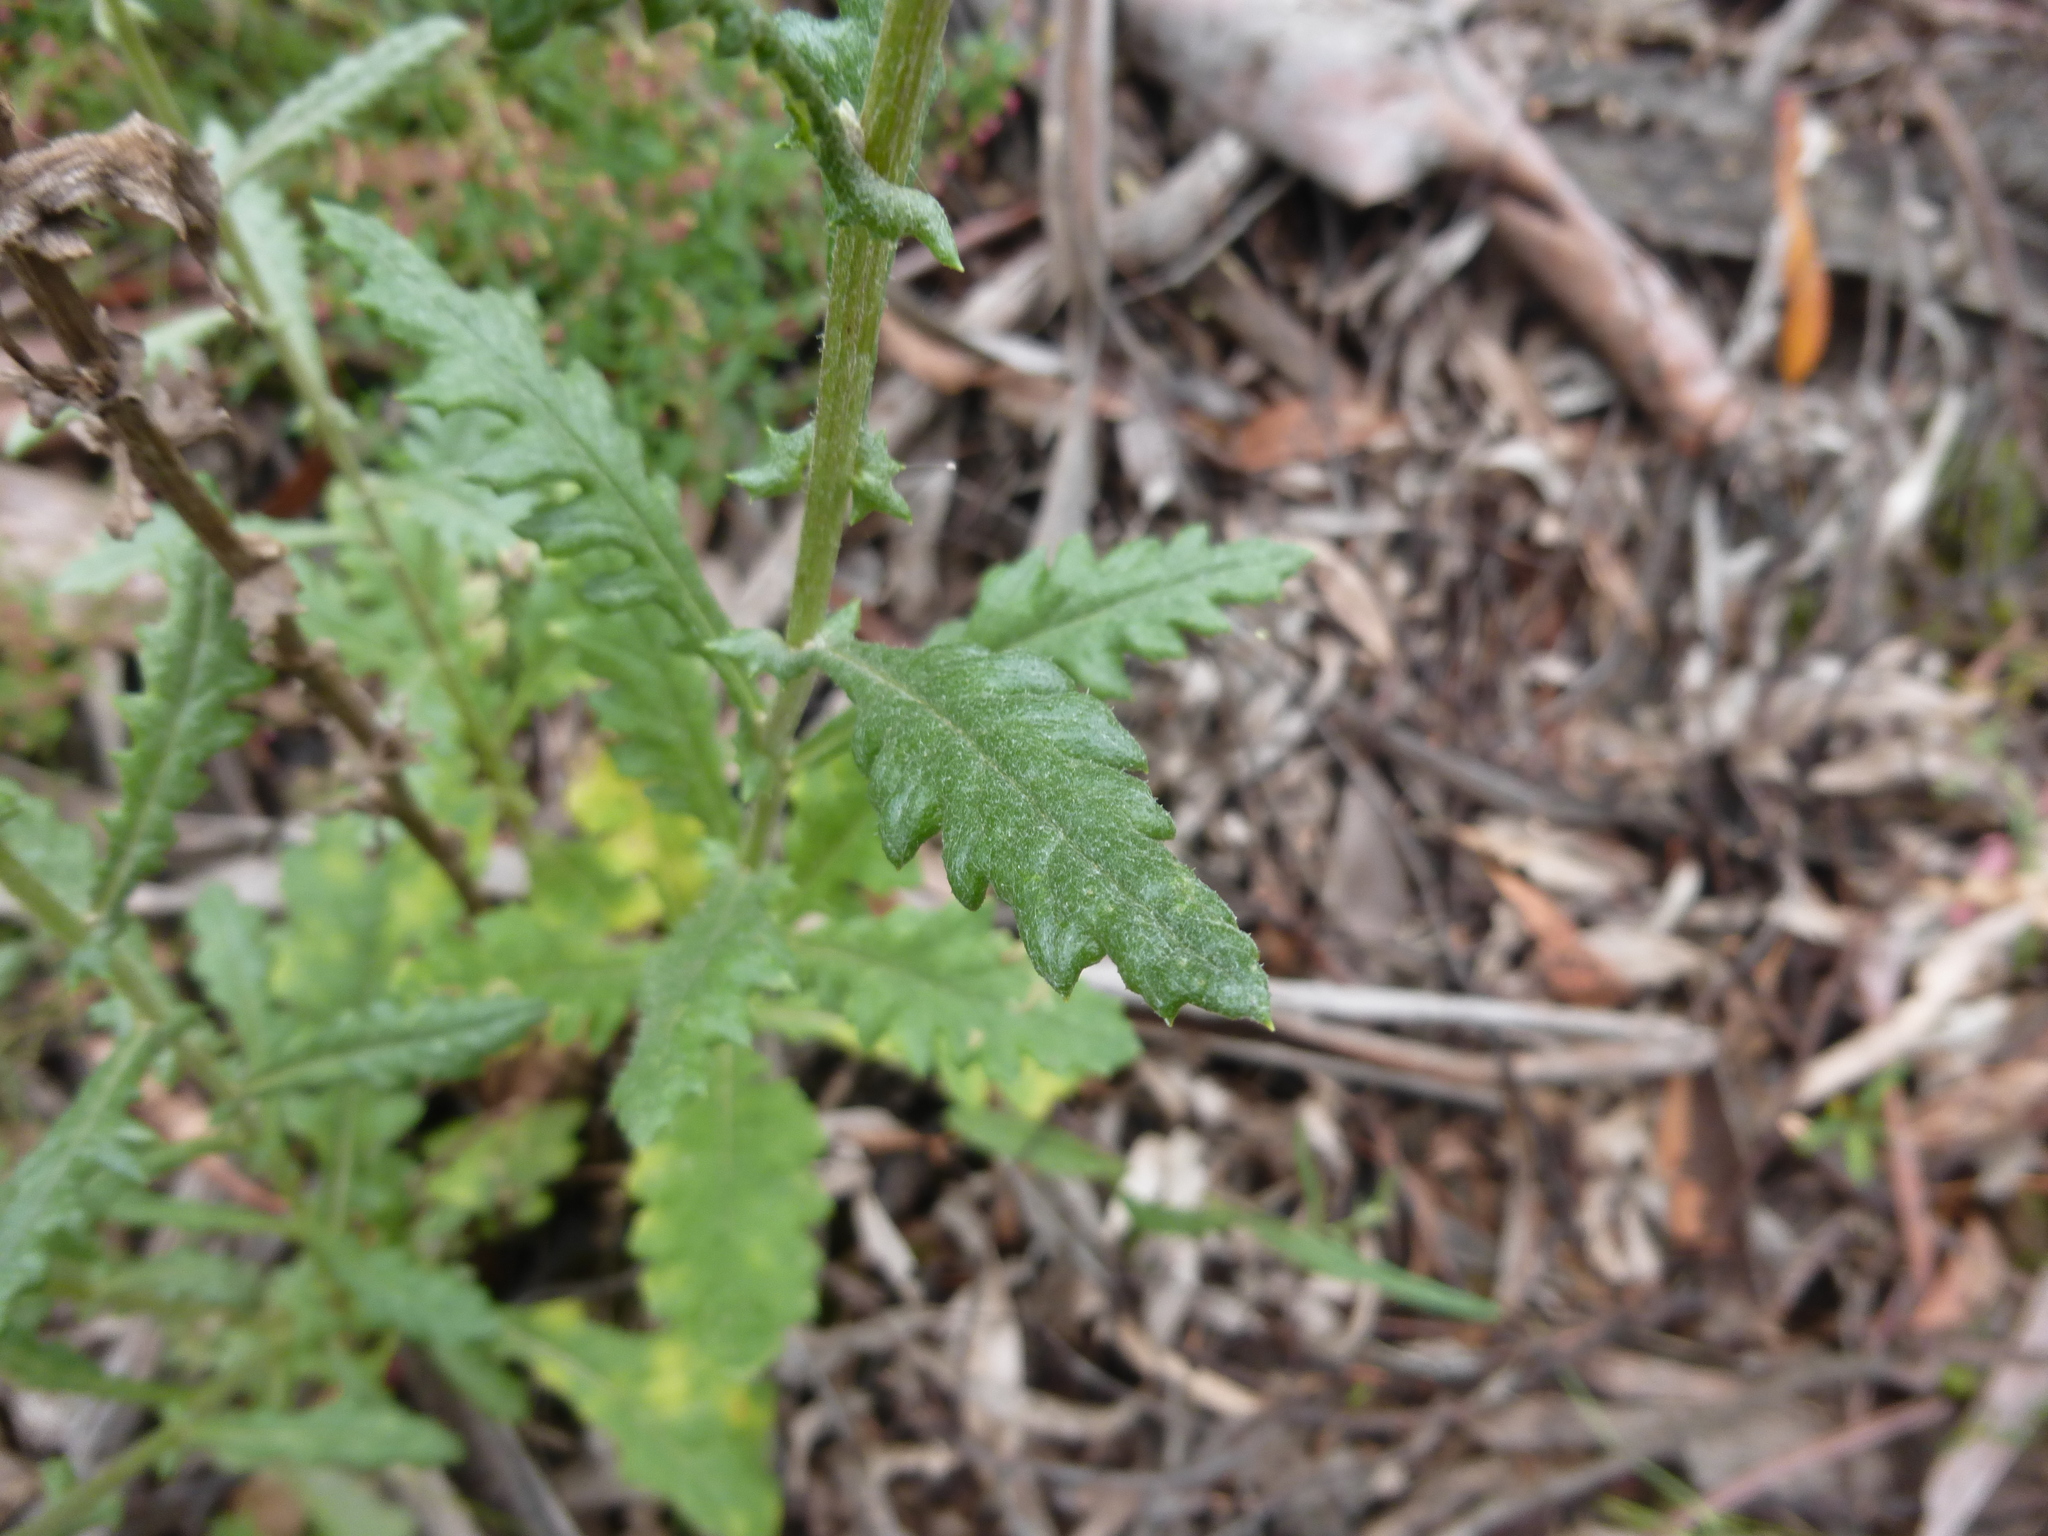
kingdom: Plantae
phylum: Tracheophyta
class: Magnoliopsida
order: Asterales
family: Asteraceae
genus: Senecio
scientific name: Senecio glomeratus
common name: Cutleaf burnweed
